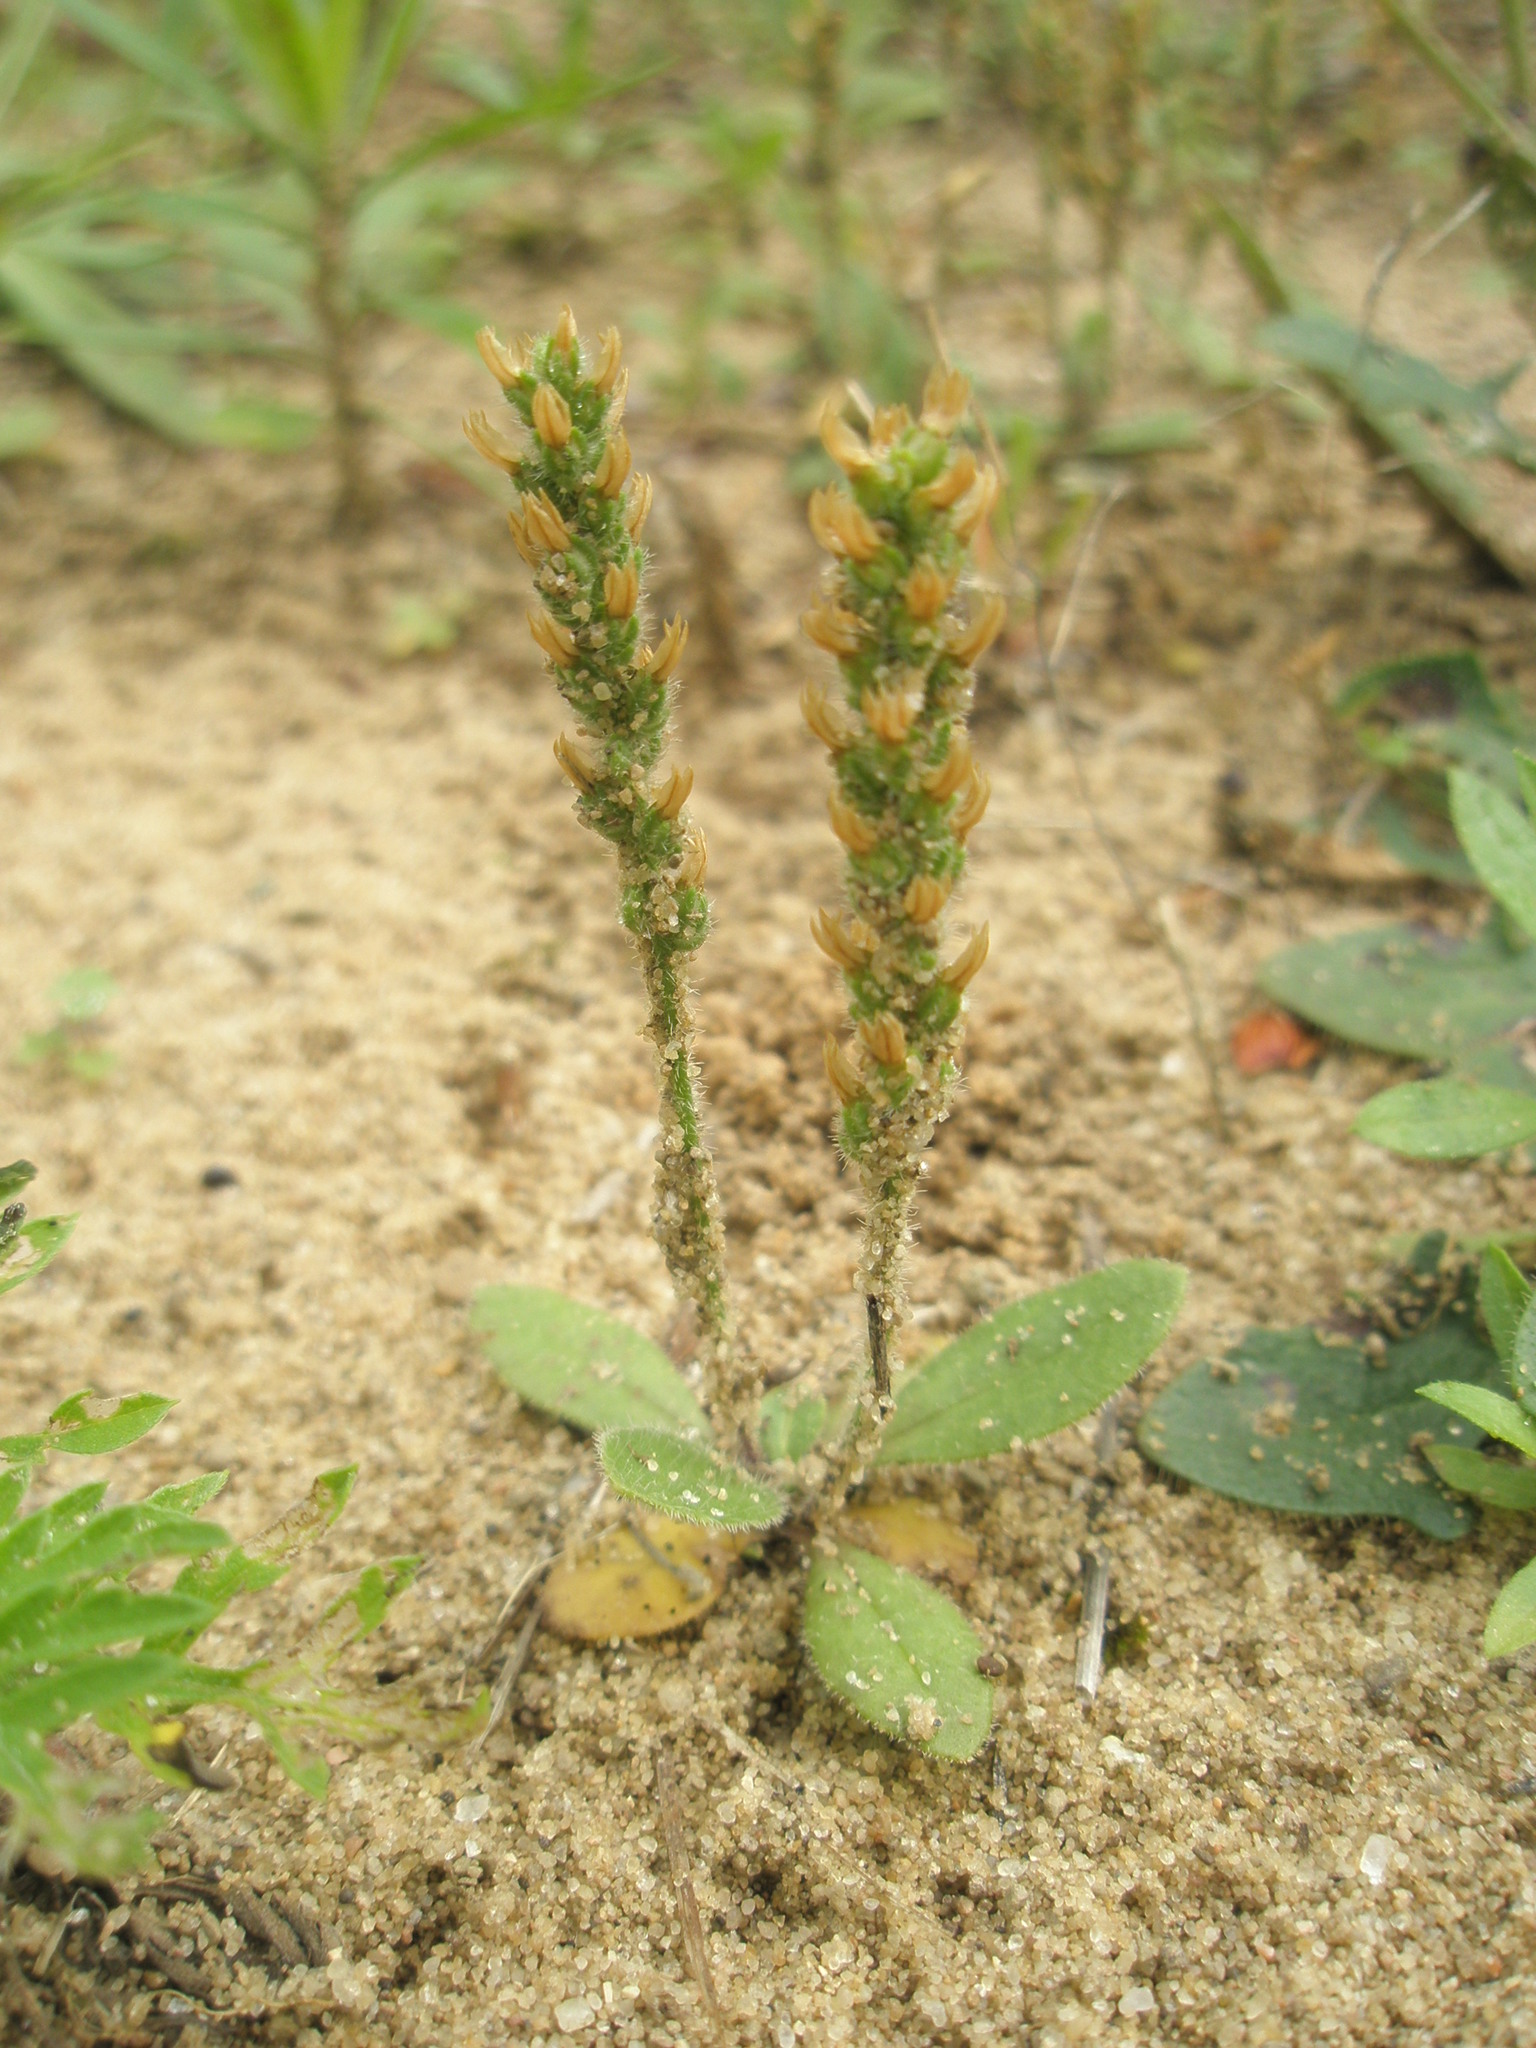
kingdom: Plantae
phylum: Tracheophyta
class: Magnoliopsida
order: Lamiales
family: Plantaginaceae
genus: Plantago
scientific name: Plantago virginica
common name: Hoary plantain
